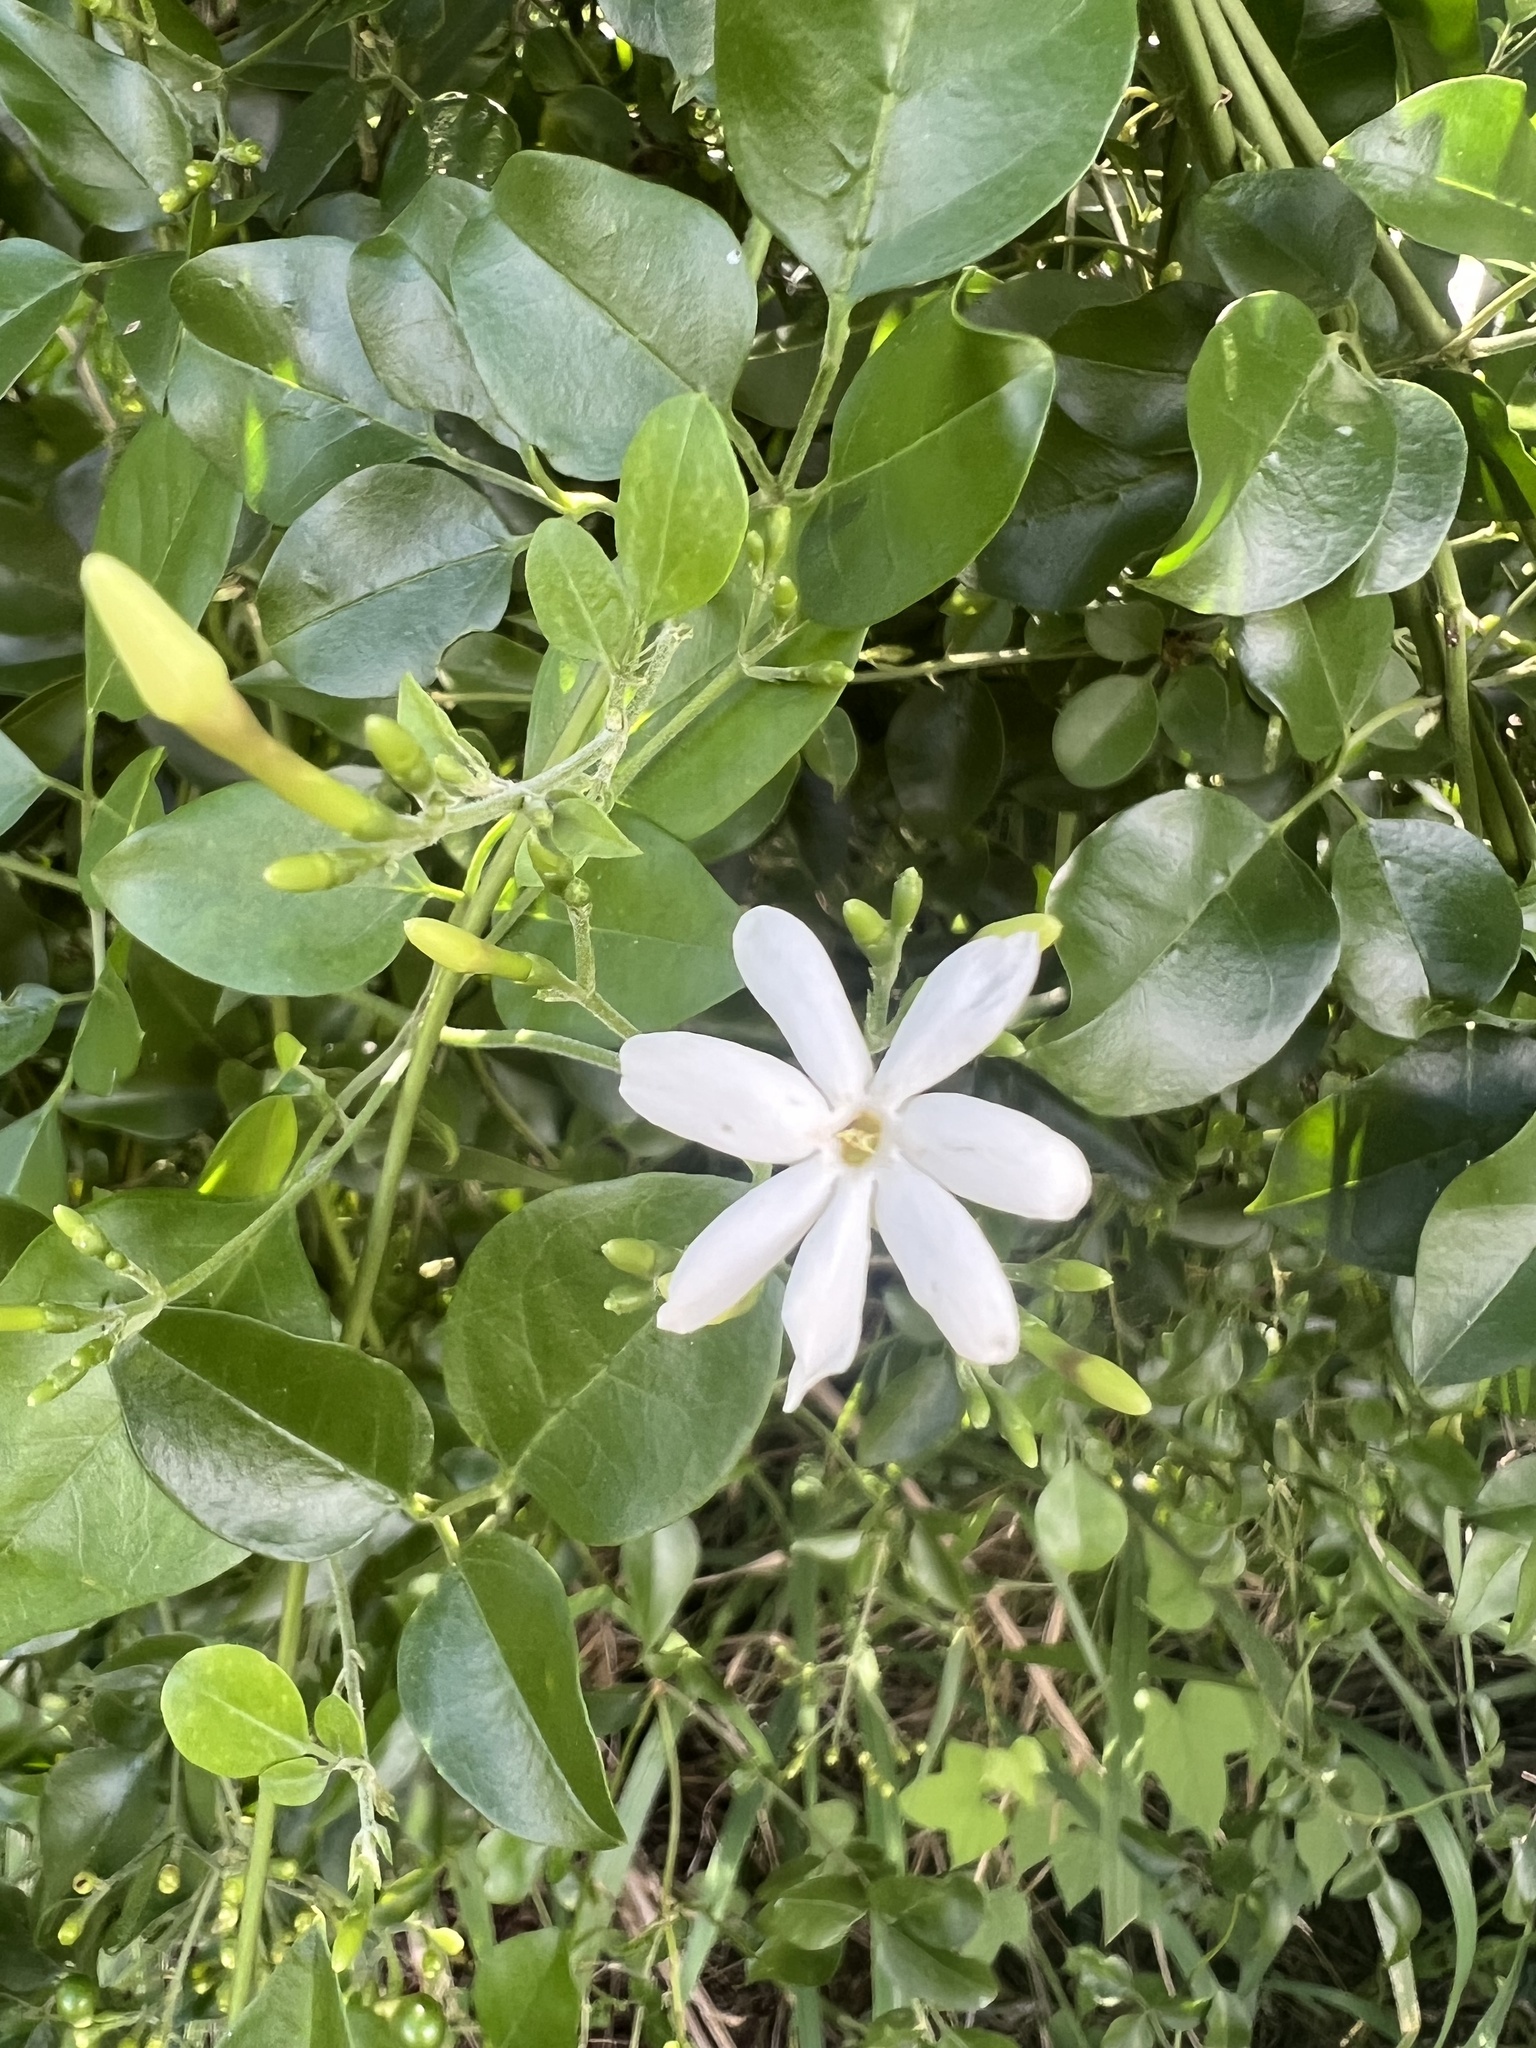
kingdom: Plantae
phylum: Tracheophyta
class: Magnoliopsida
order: Lamiales
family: Oleaceae
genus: Jasminum
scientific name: Jasminum fluminense
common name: Brazilian jasmine
